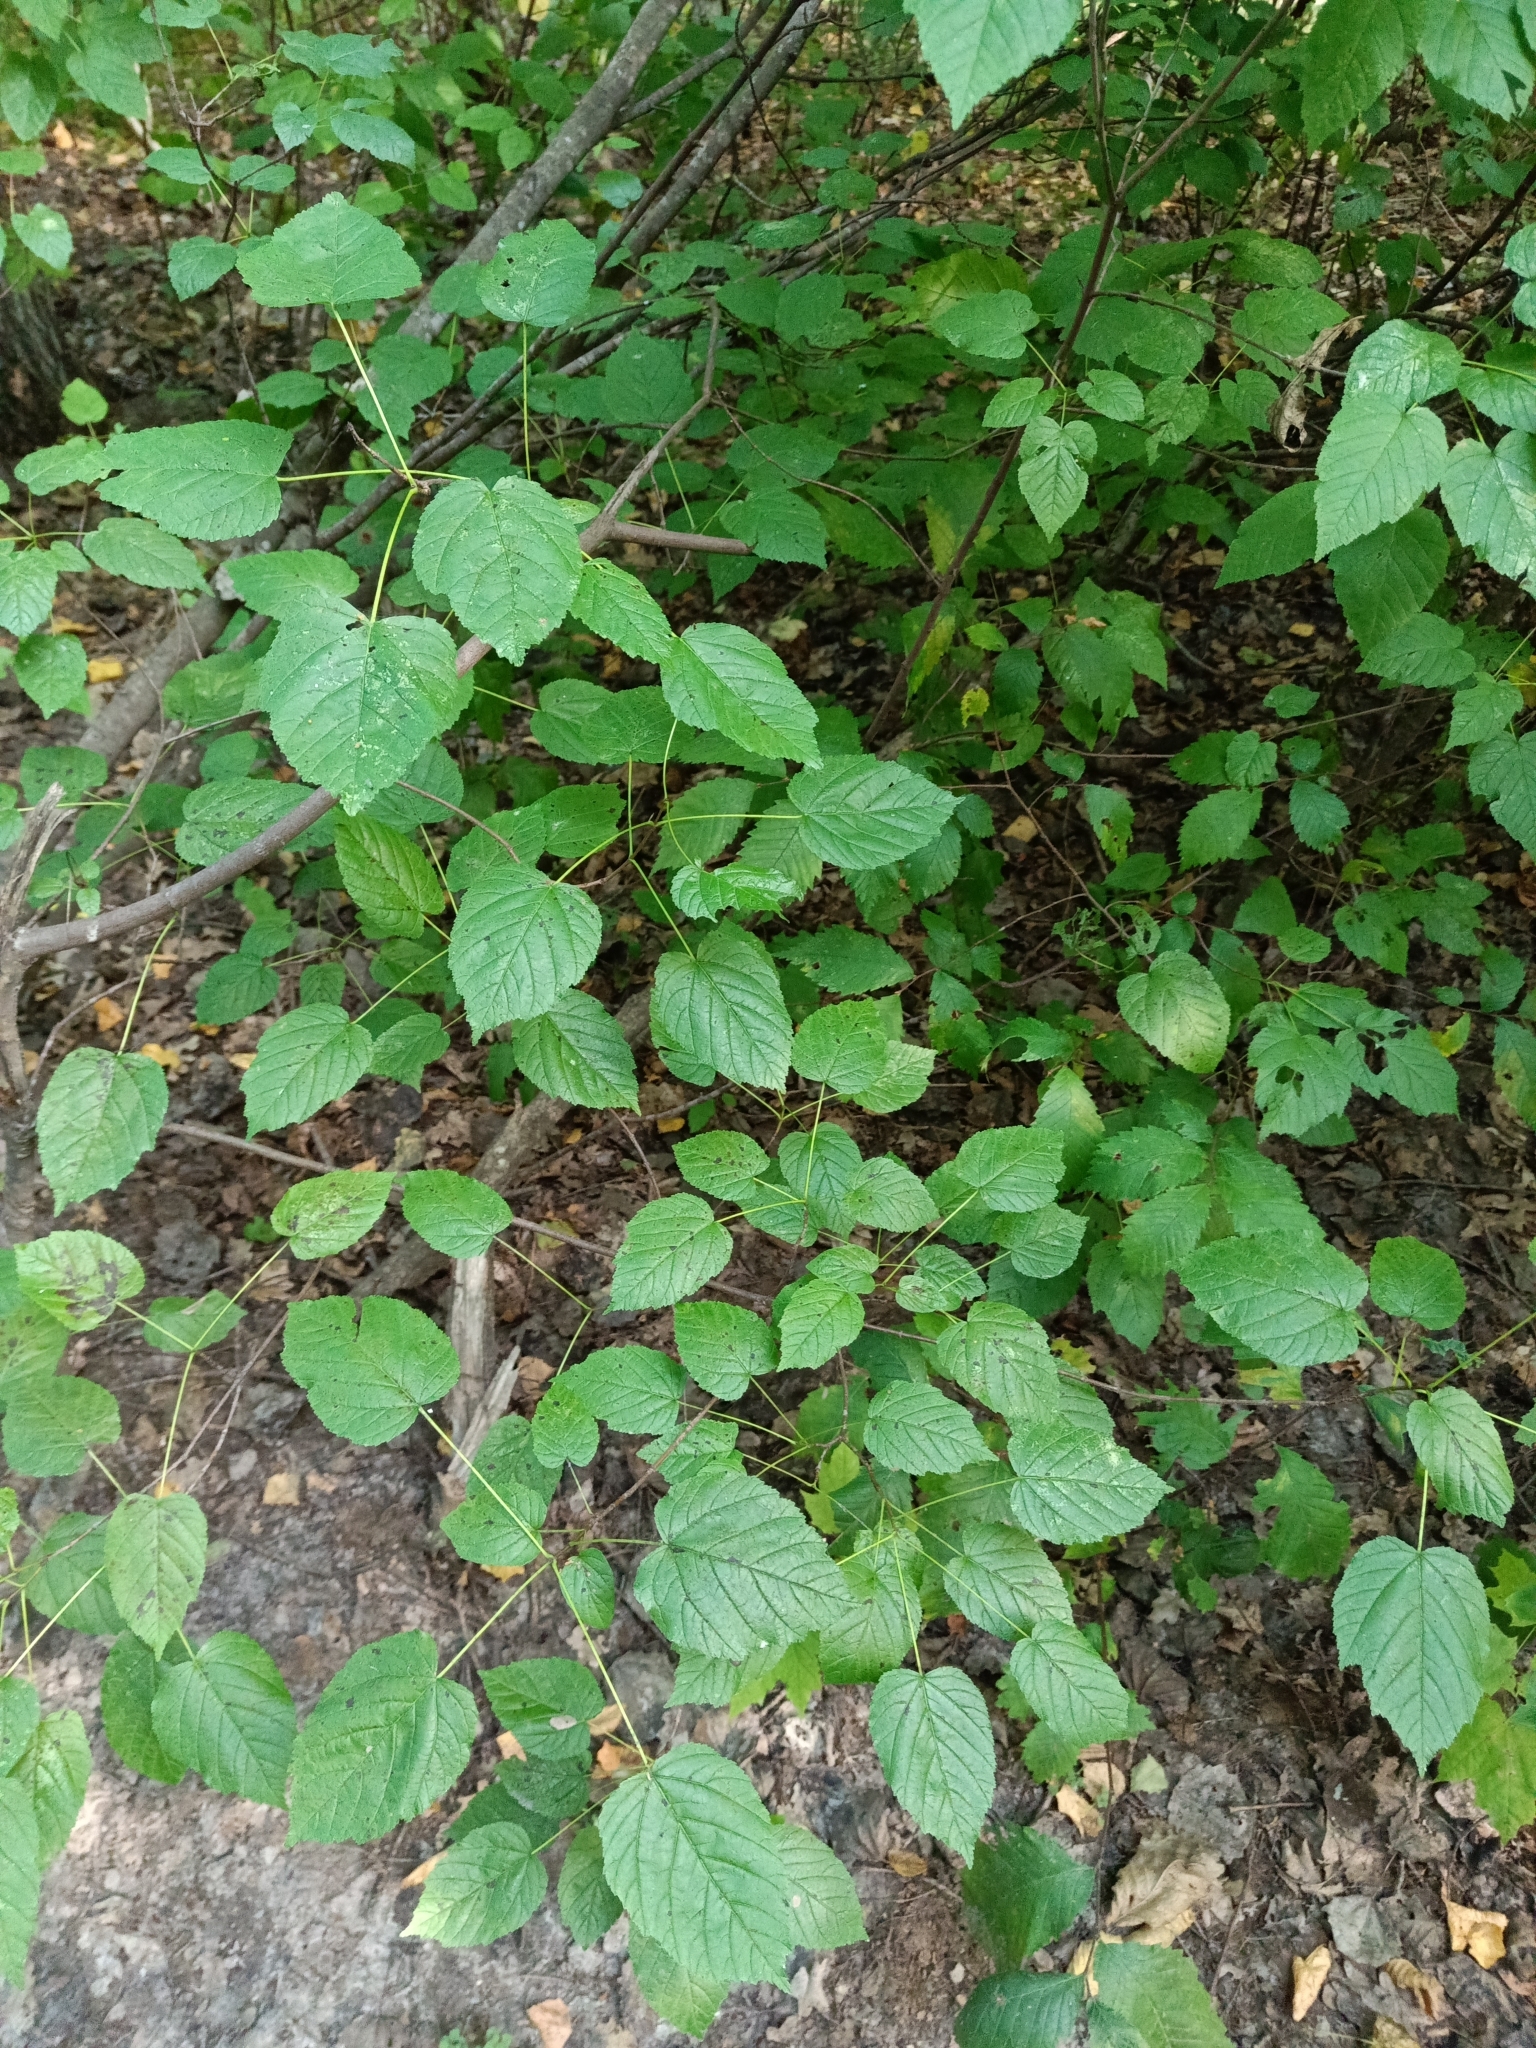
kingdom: Plantae
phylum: Tracheophyta
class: Magnoliopsida
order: Sapindales
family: Sapindaceae
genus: Acer
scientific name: Acer tataricum
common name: Tartar maple
